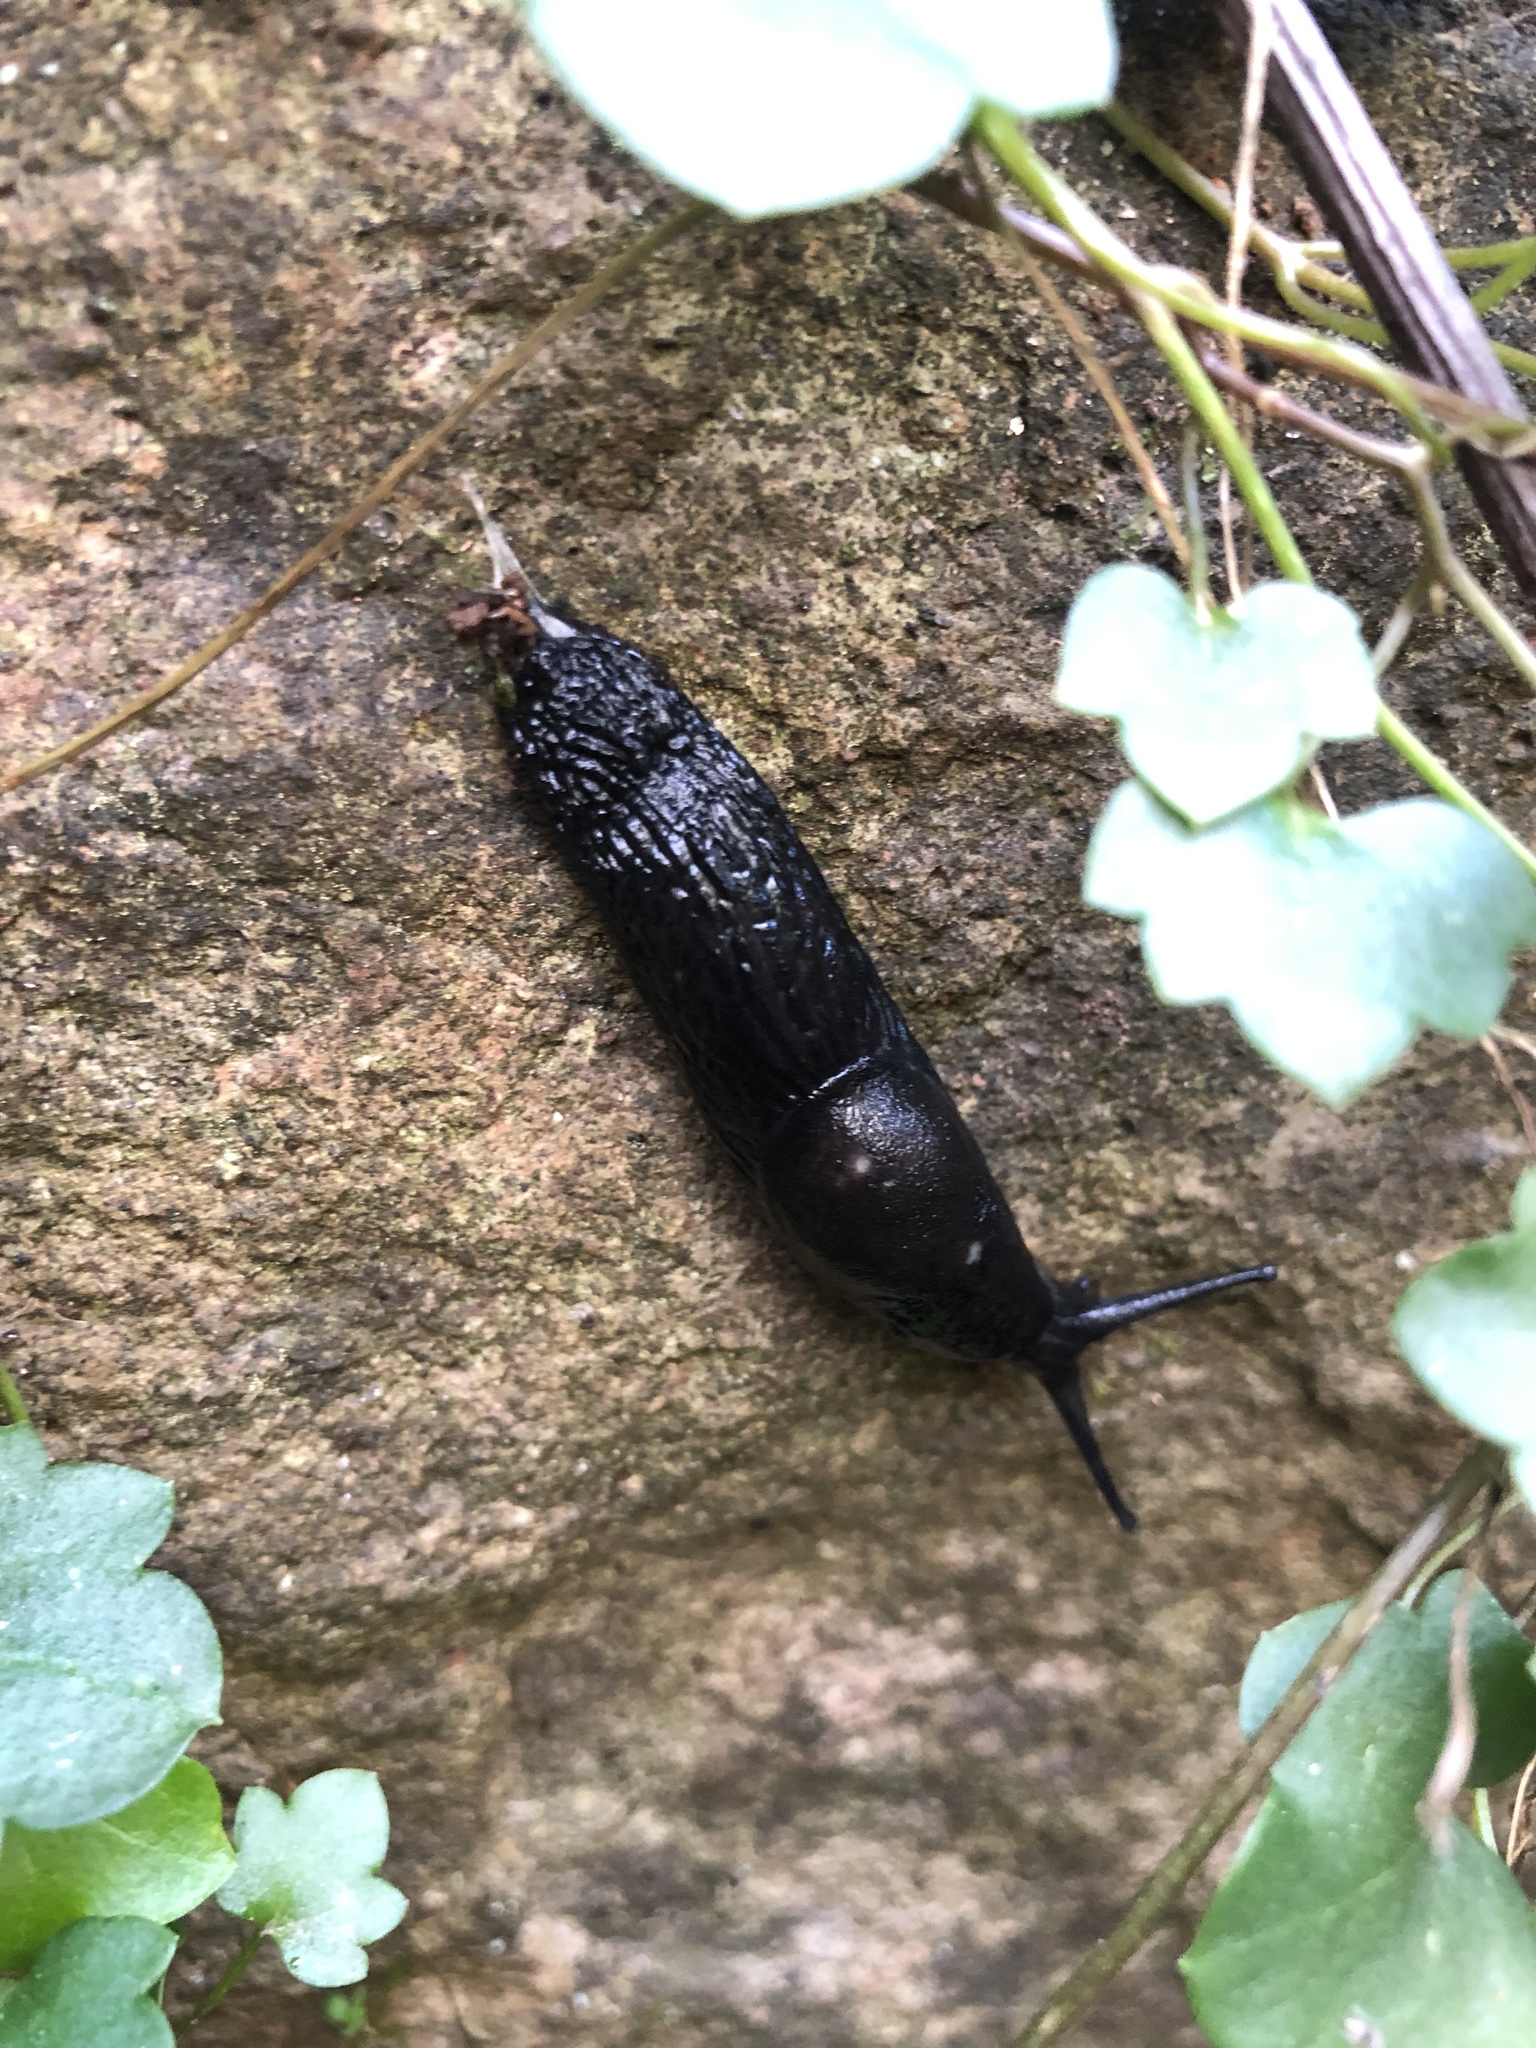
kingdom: Animalia
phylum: Mollusca
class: Gastropoda
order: Stylommatophora
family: Arionidae
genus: Arion
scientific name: Arion ater
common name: Black arion
